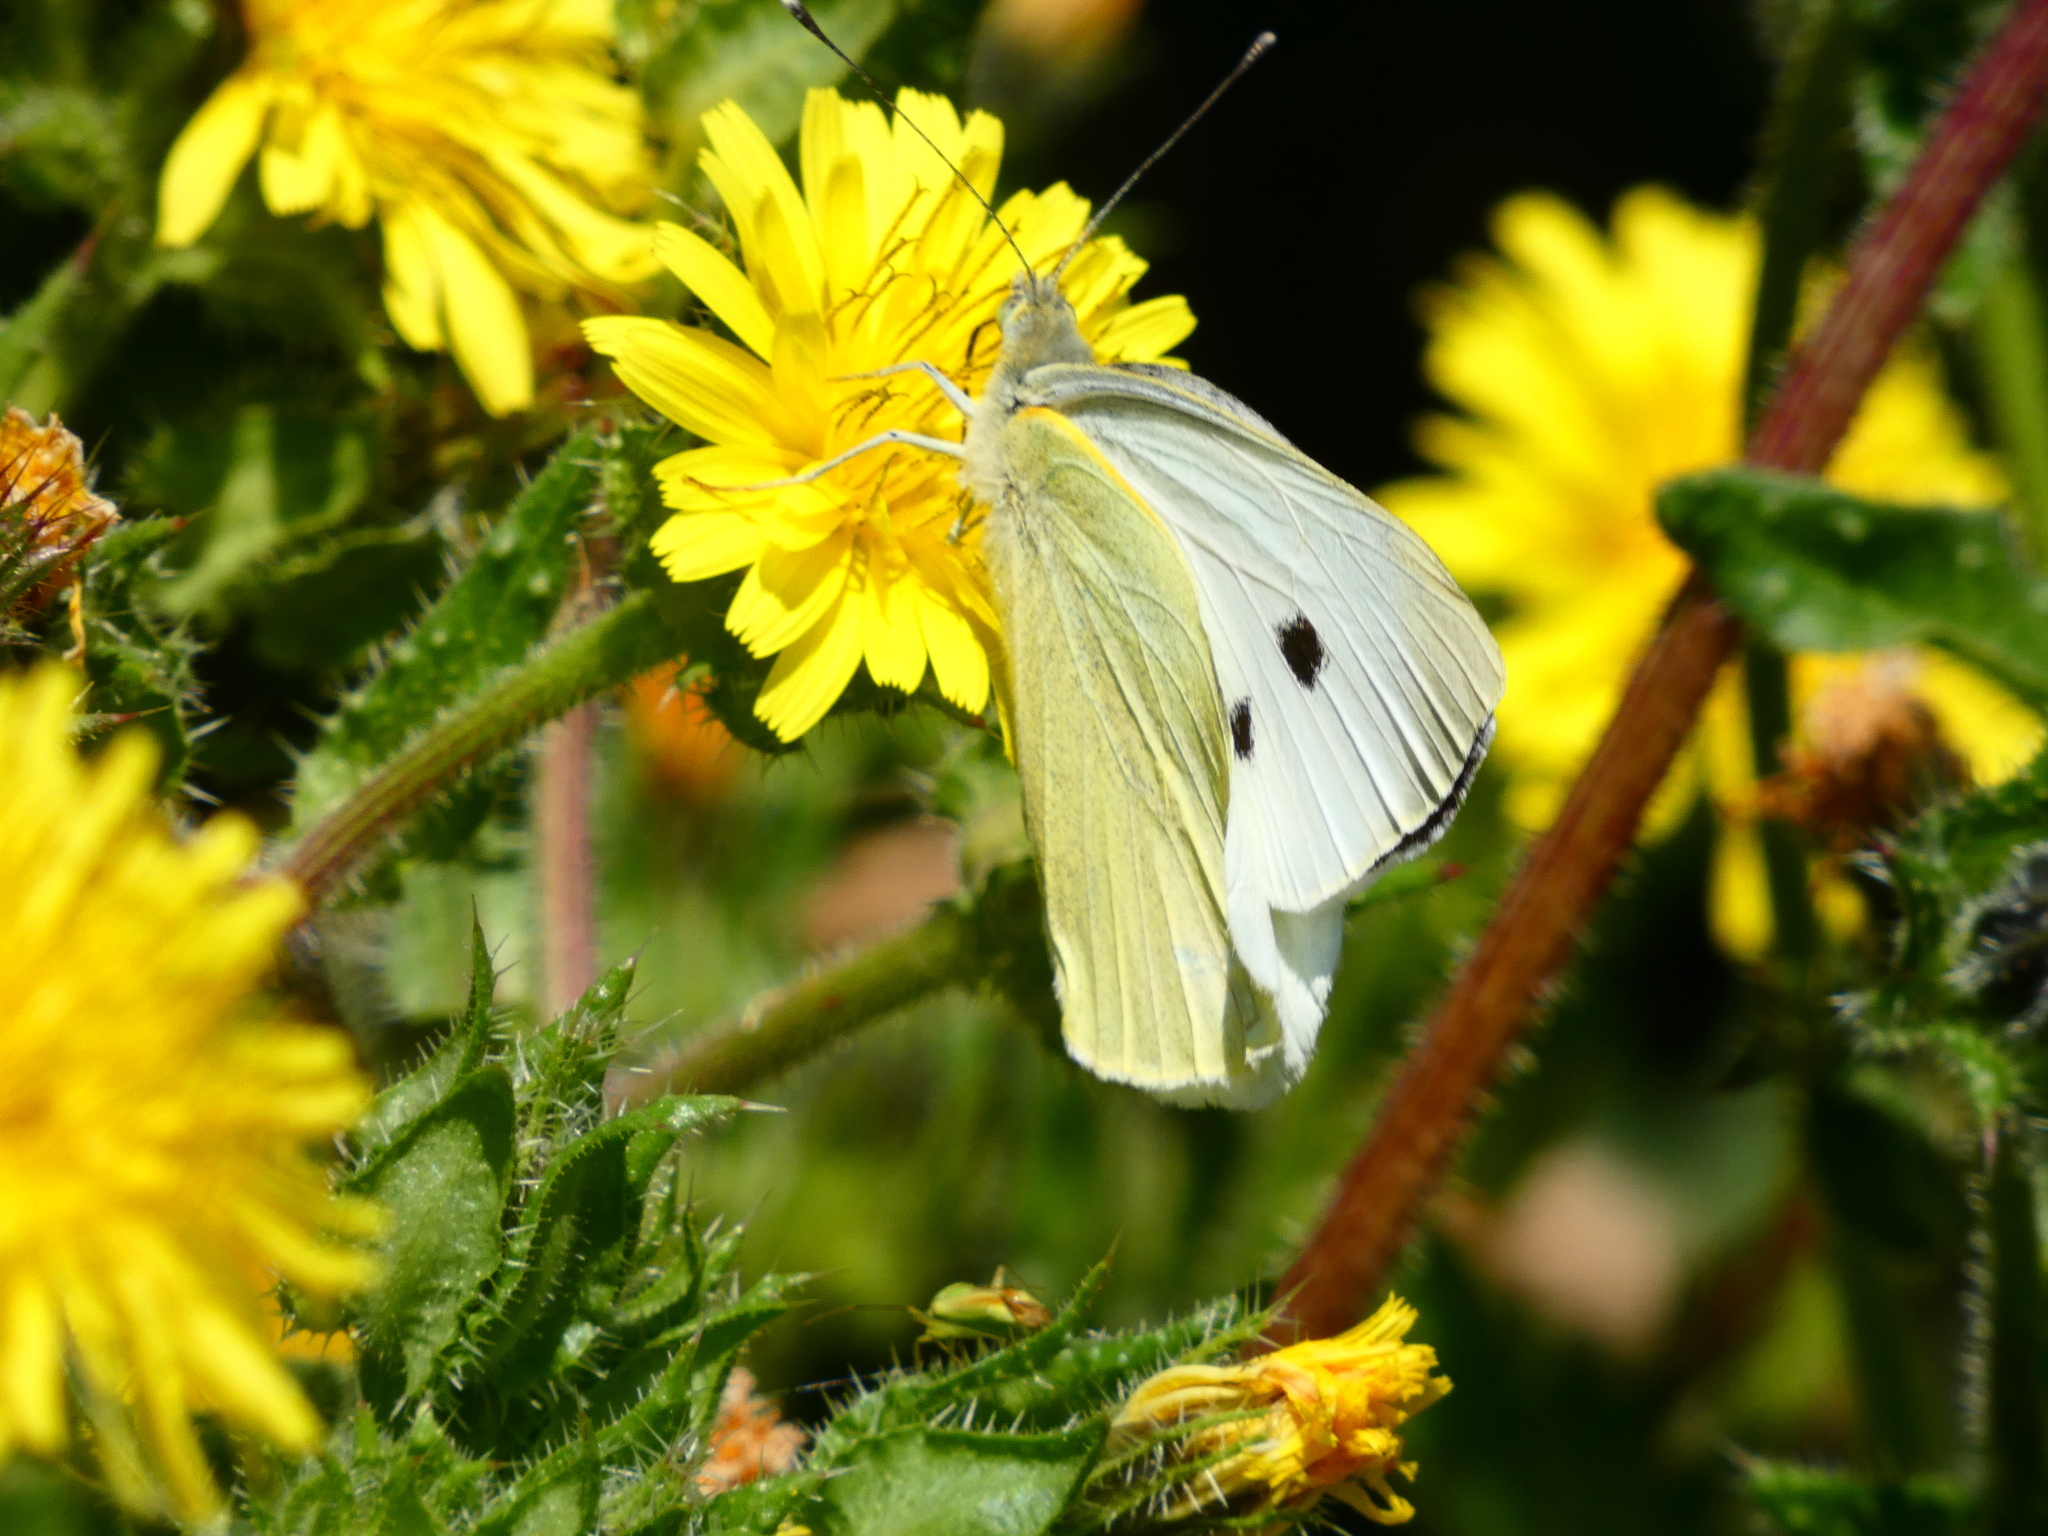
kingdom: Animalia
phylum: Arthropoda
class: Insecta
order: Lepidoptera
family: Pieridae
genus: Pieris
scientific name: Pieris brassicae
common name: Large white
